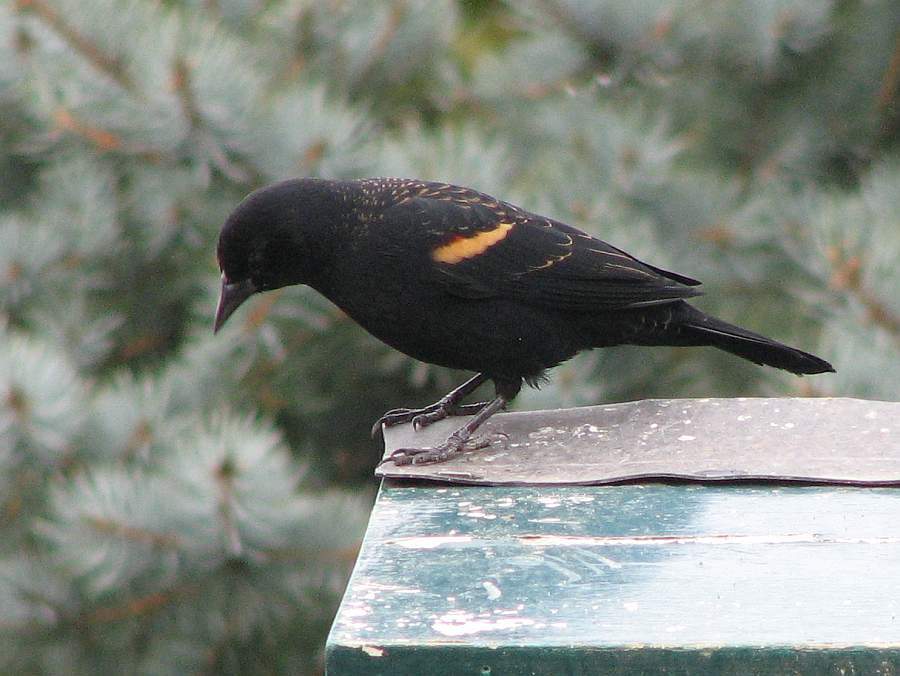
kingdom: Animalia
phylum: Chordata
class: Aves
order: Passeriformes
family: Icteridae
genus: Agelaius
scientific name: Agelaius phoeniceus
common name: Red-winged blackbird
